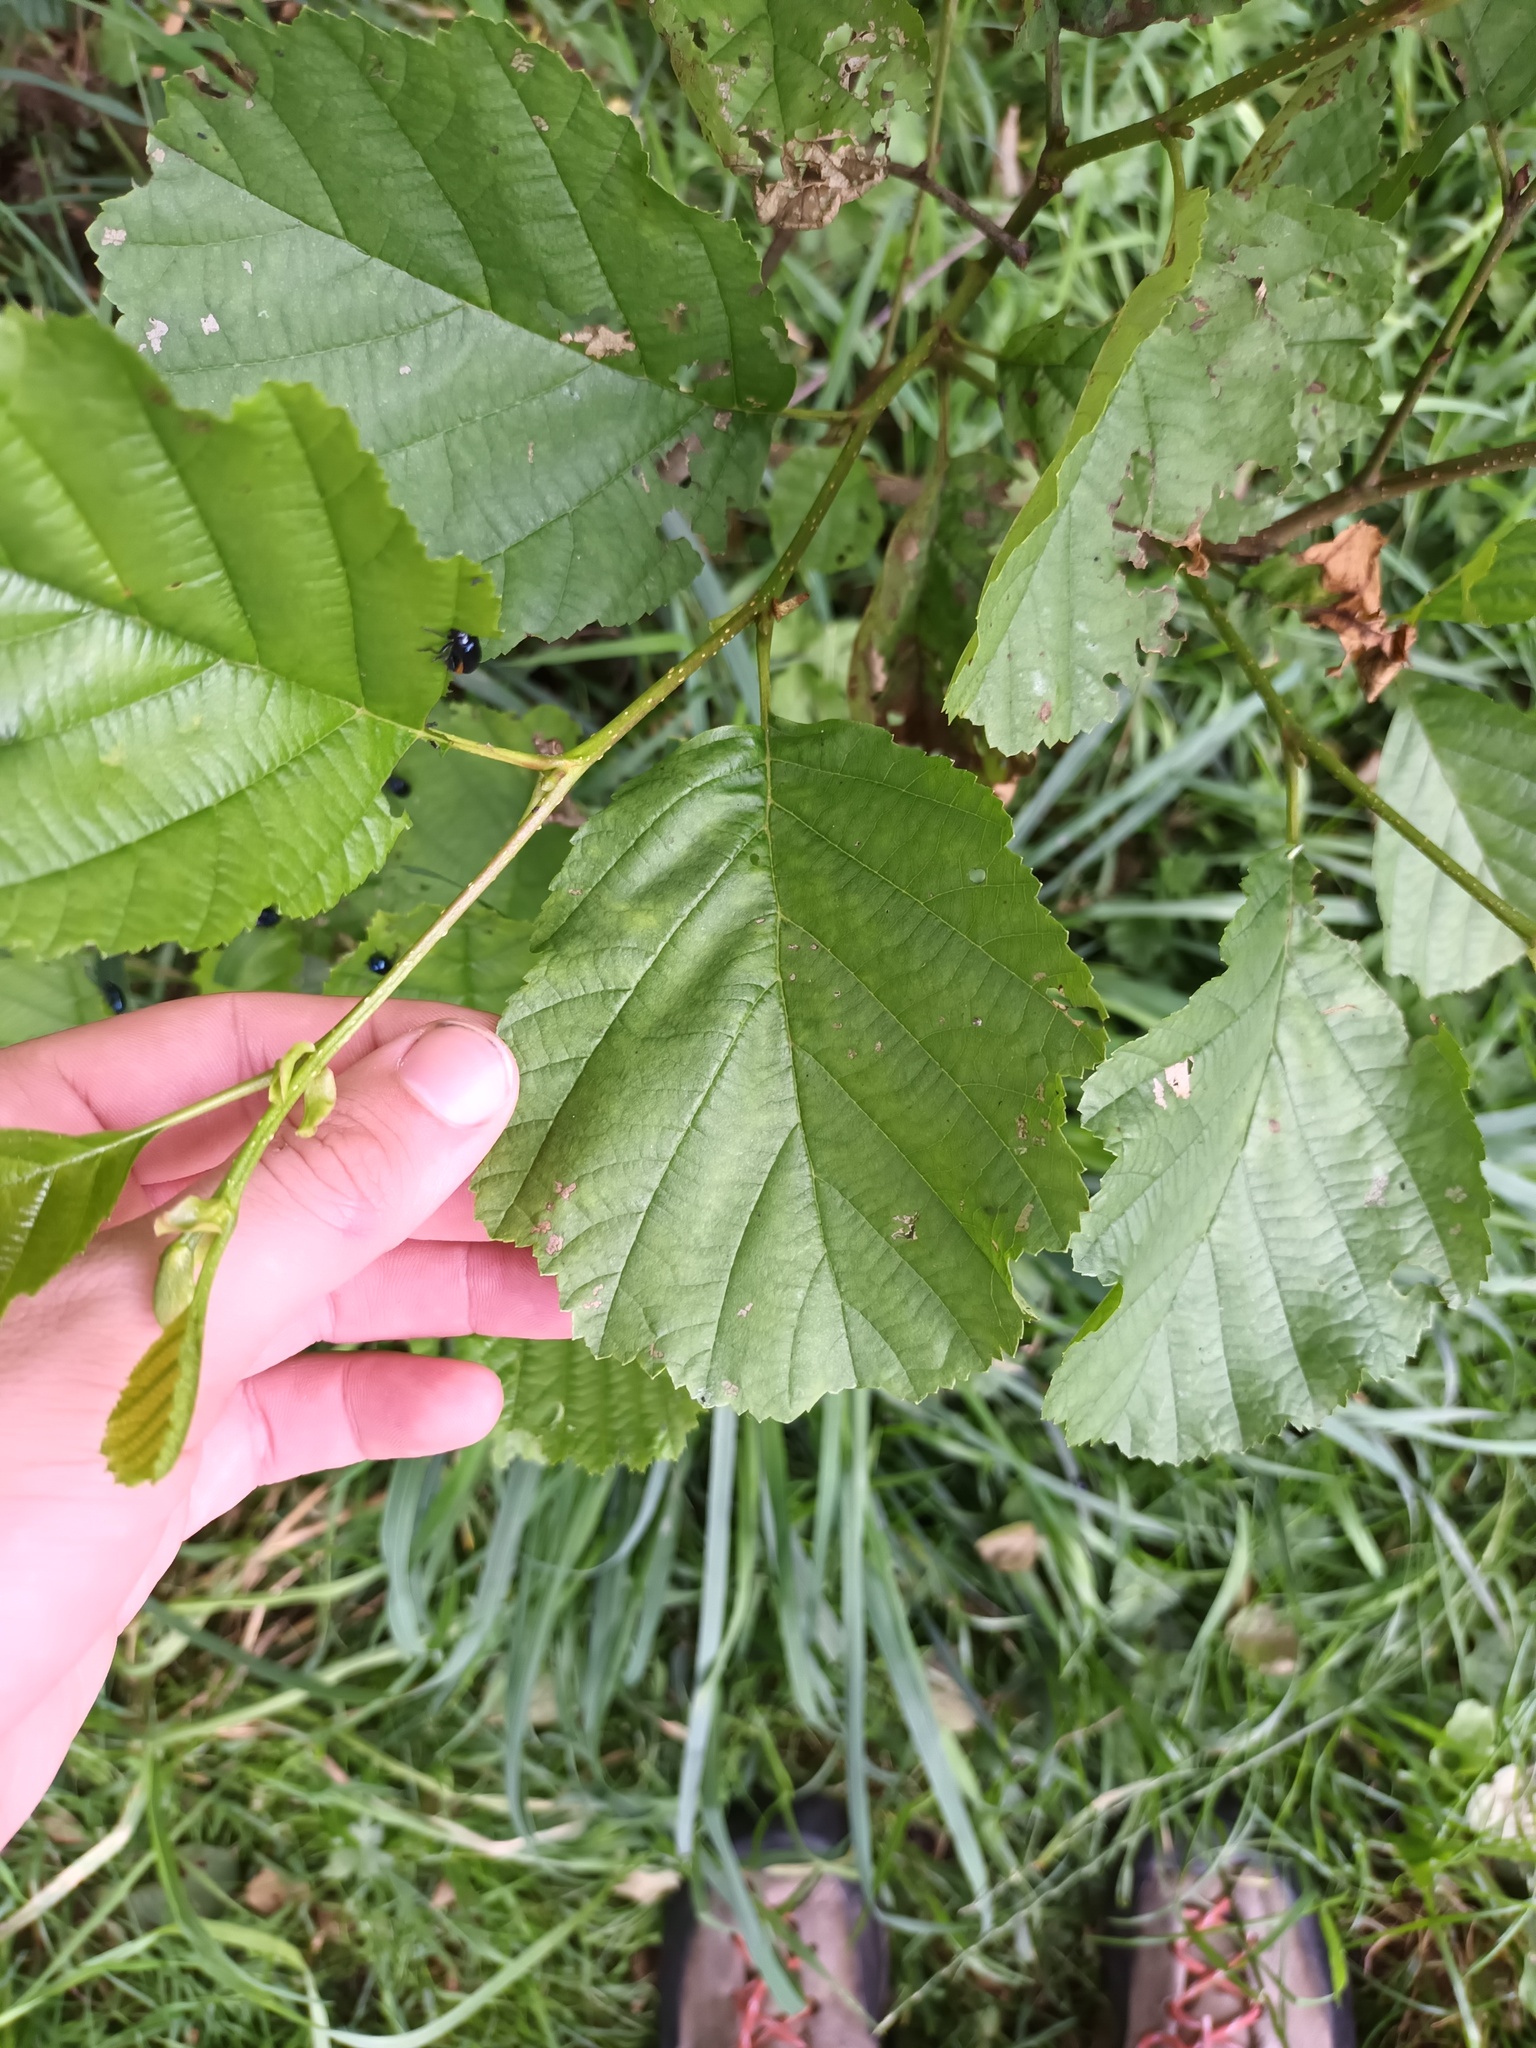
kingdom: Plantae
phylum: Tracheophyta
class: Magnoliopsida
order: Fagales
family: Betulaceae
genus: Alnus
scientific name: Alnus glutinosa
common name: Black alder
